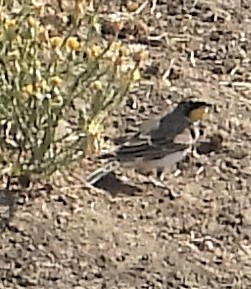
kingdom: Animalia
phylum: Chordata
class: Aves
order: Passeriformes
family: Alaudidae
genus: Eremophila
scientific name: Eremophila alpestris
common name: Horned lark
